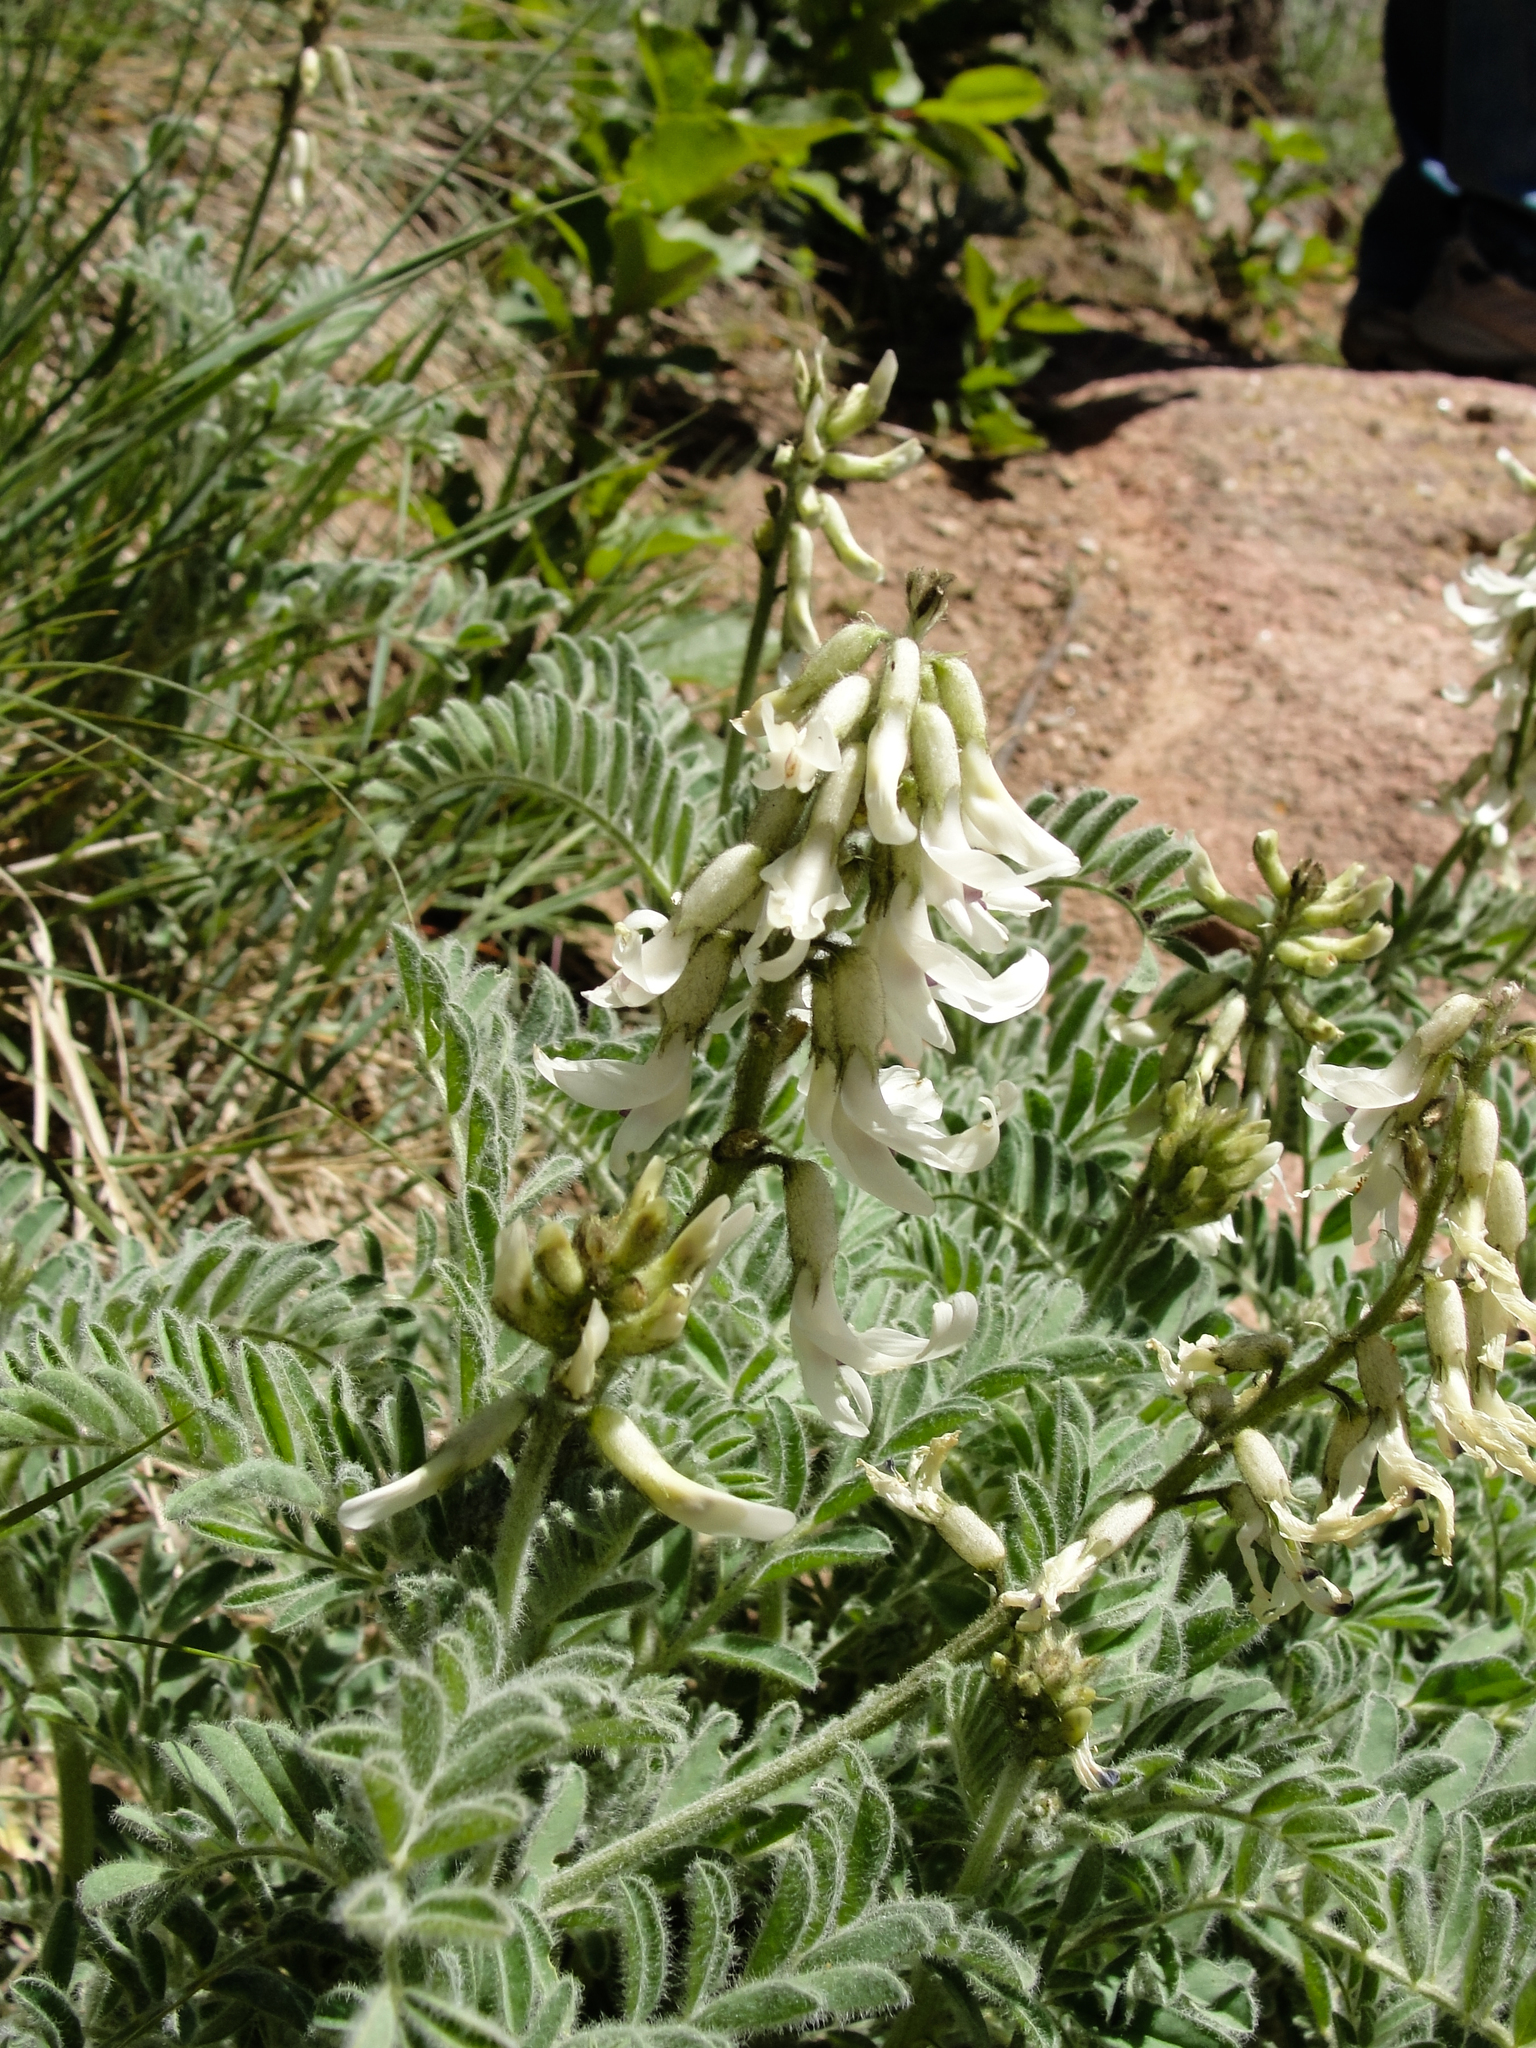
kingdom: Plantae
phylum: Tracheophyta
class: Magnoliopsida
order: Fabales
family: Fabaceae
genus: Astragalus
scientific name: Astragalus drummondii
